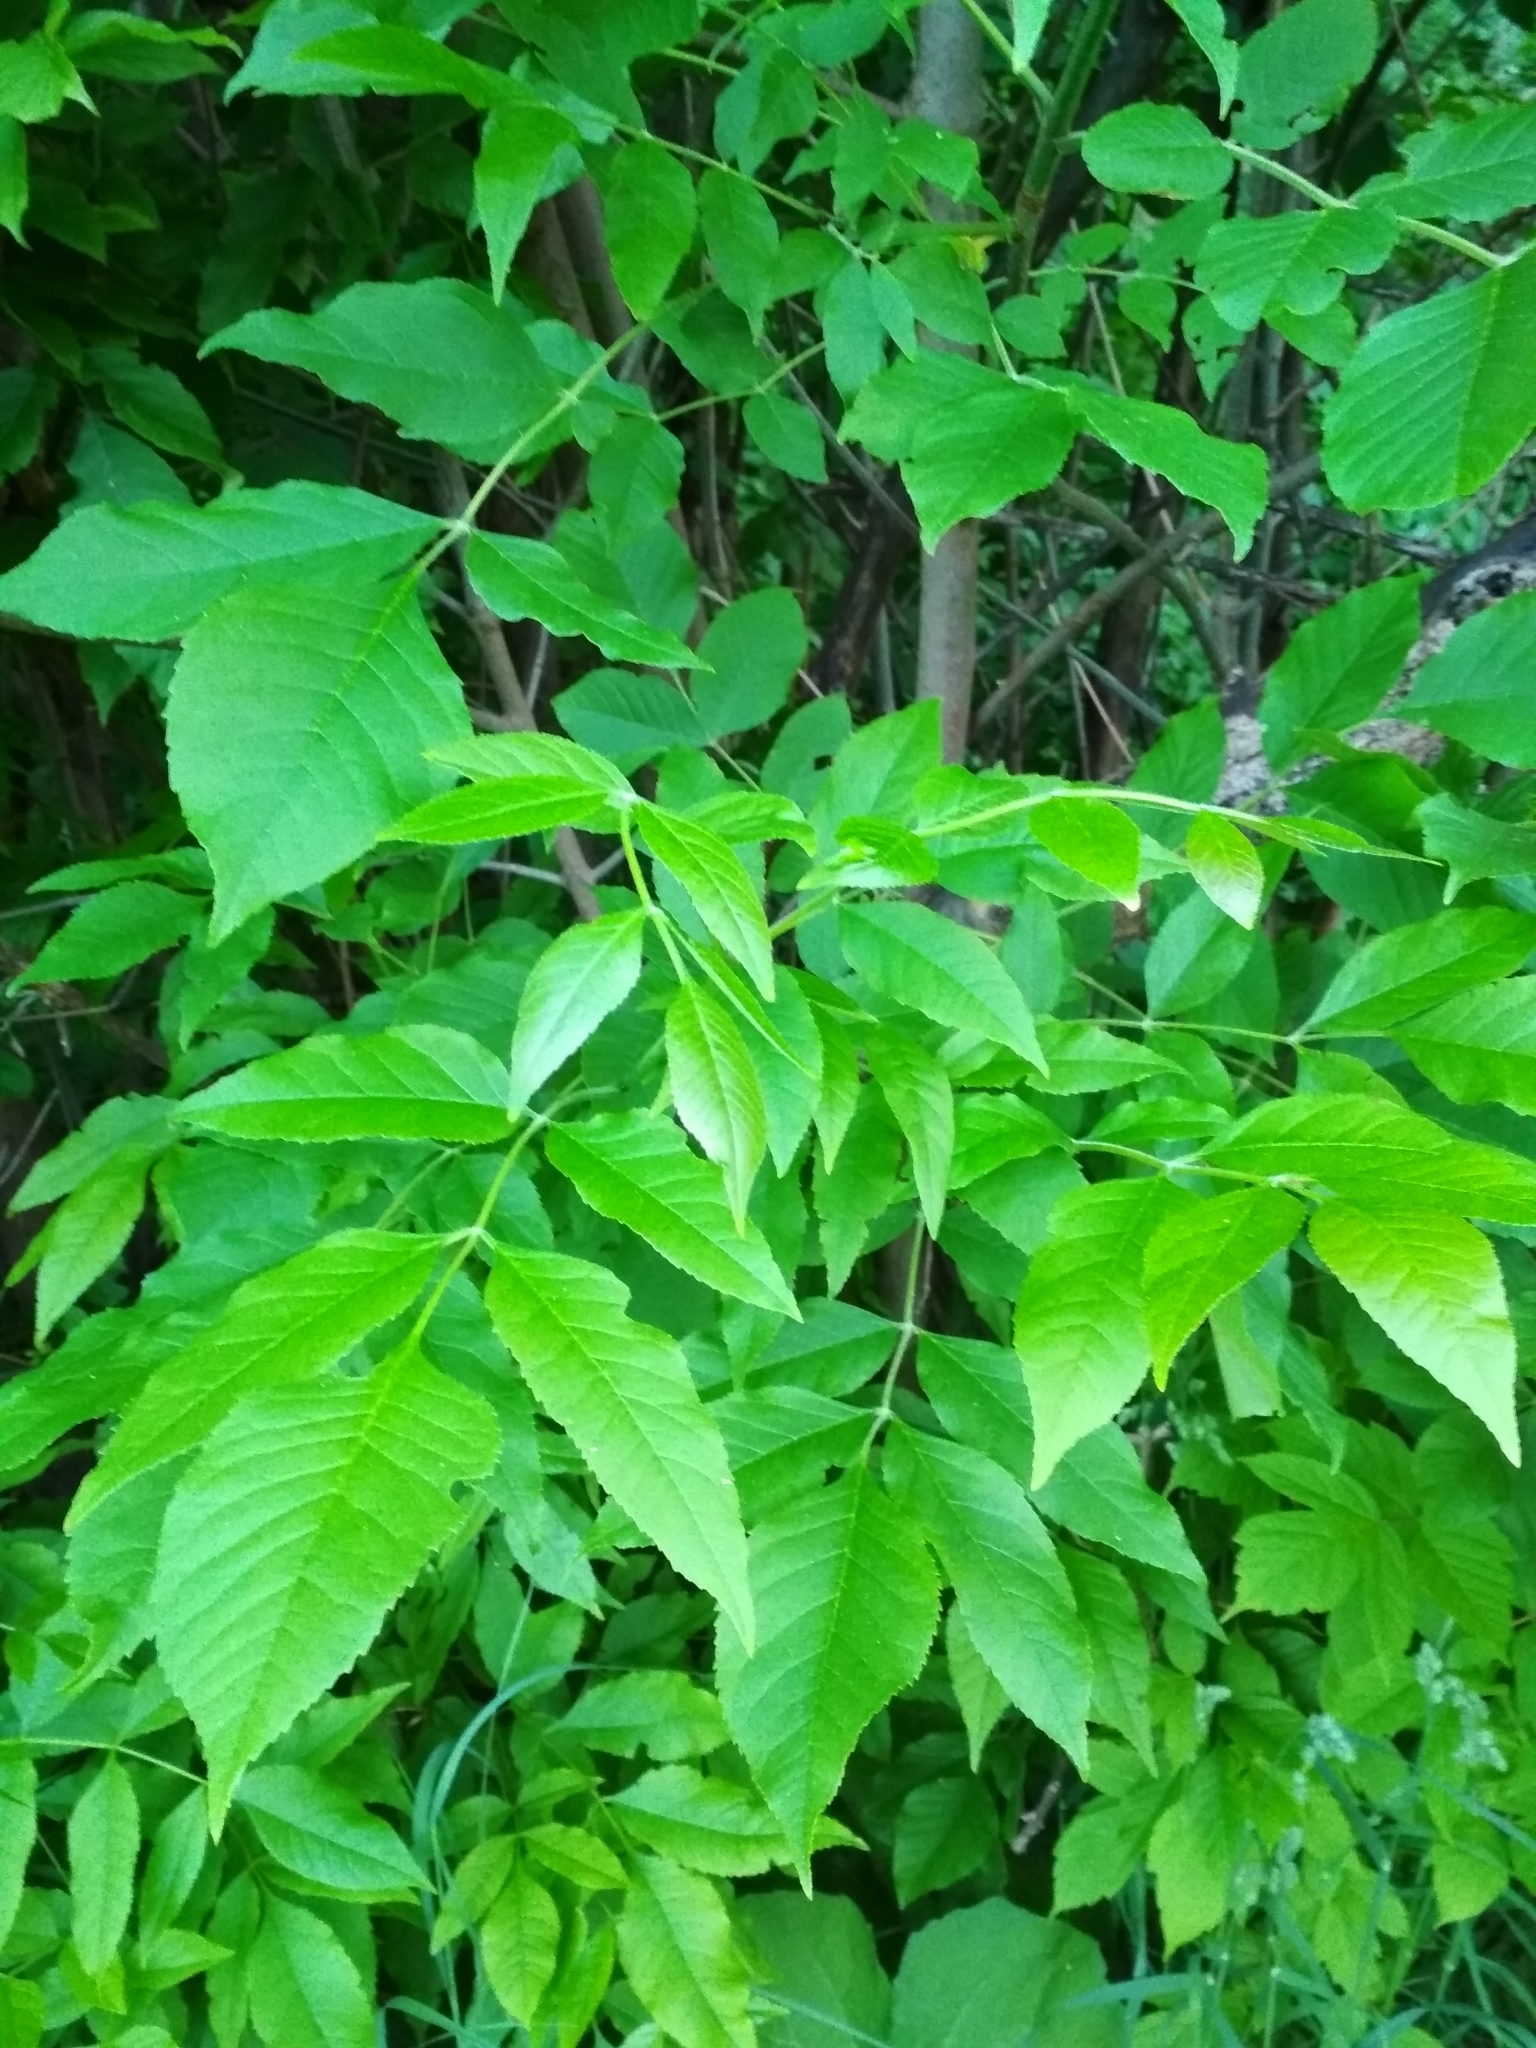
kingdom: Plantae
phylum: Tracheophyta
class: Magnoliopsida
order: Lamiales
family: Oleaceae
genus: Fraxinus
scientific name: Fraxinus pennsylvanica
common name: Green ash
